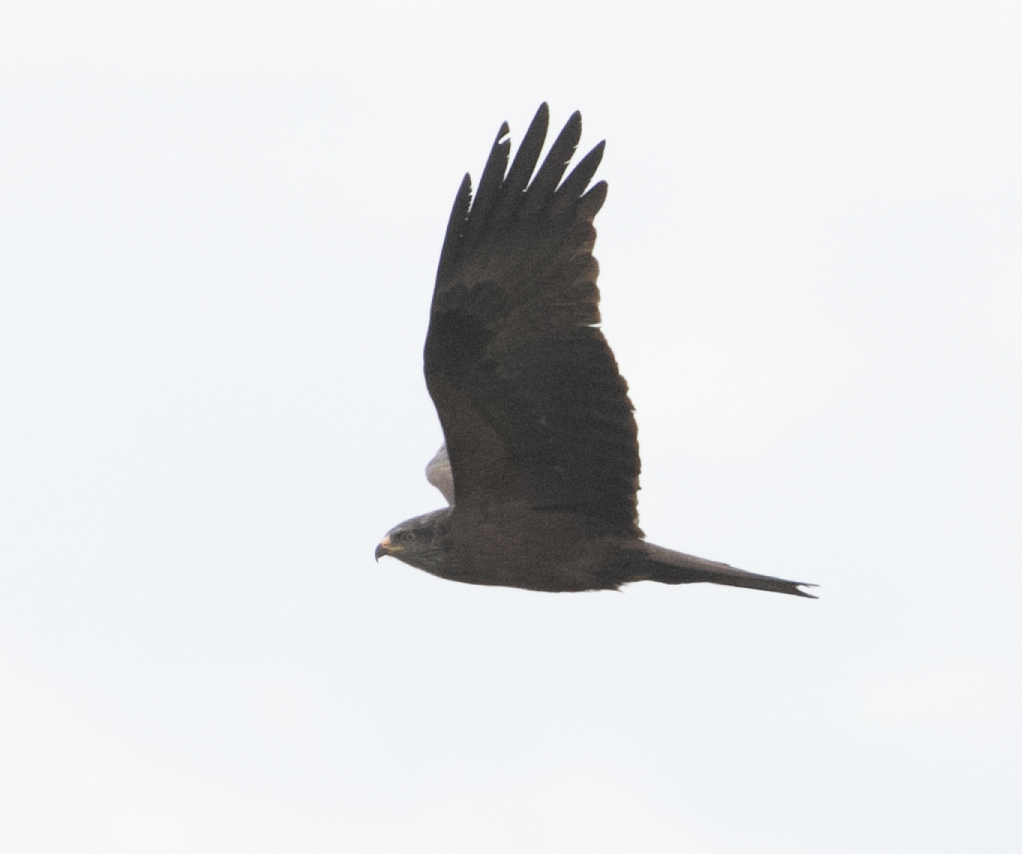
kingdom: Animalia
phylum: Chordata
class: Aves
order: Accipitriformes
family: Accipitridae
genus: Milvus
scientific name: Milvus migrans
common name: Black kite
